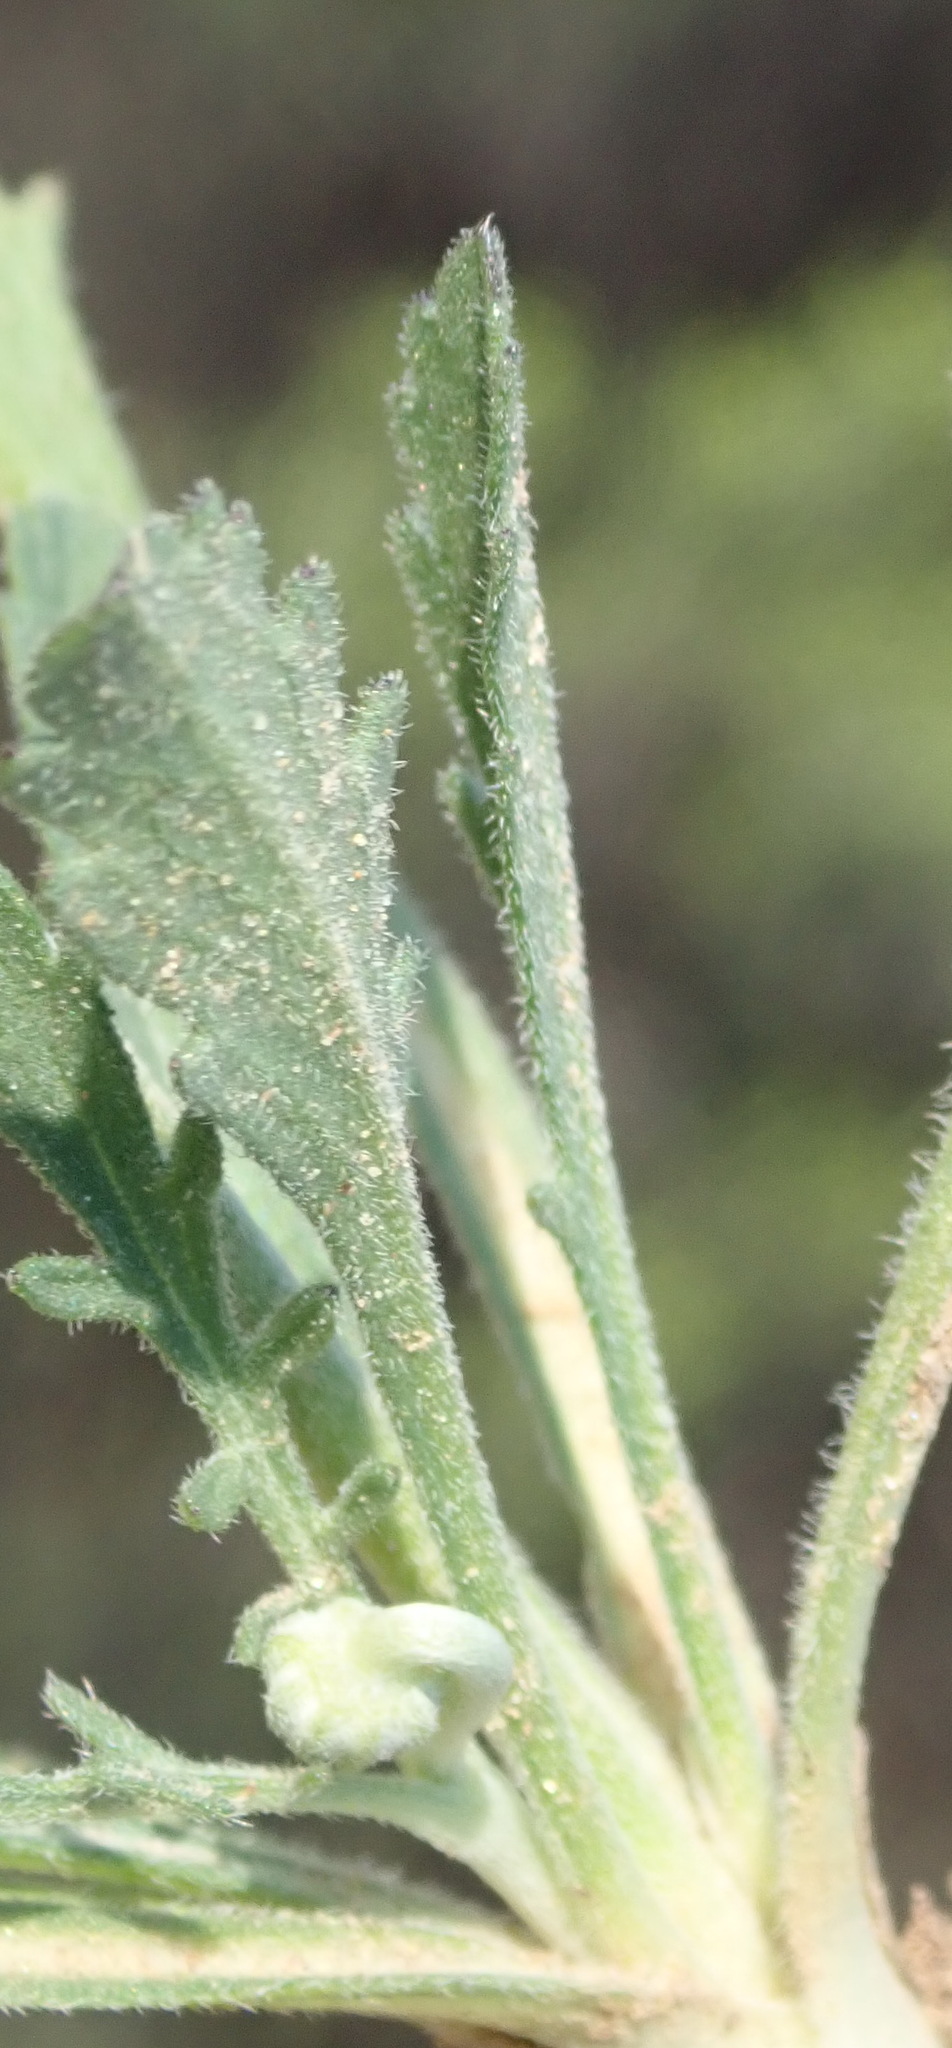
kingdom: Plantae
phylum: Tracheophyta
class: Magnoliopsida
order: Dipsacales
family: Caprifoliaceae
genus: Scabiosa
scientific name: Scabiosa columbaria
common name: Small scabious
